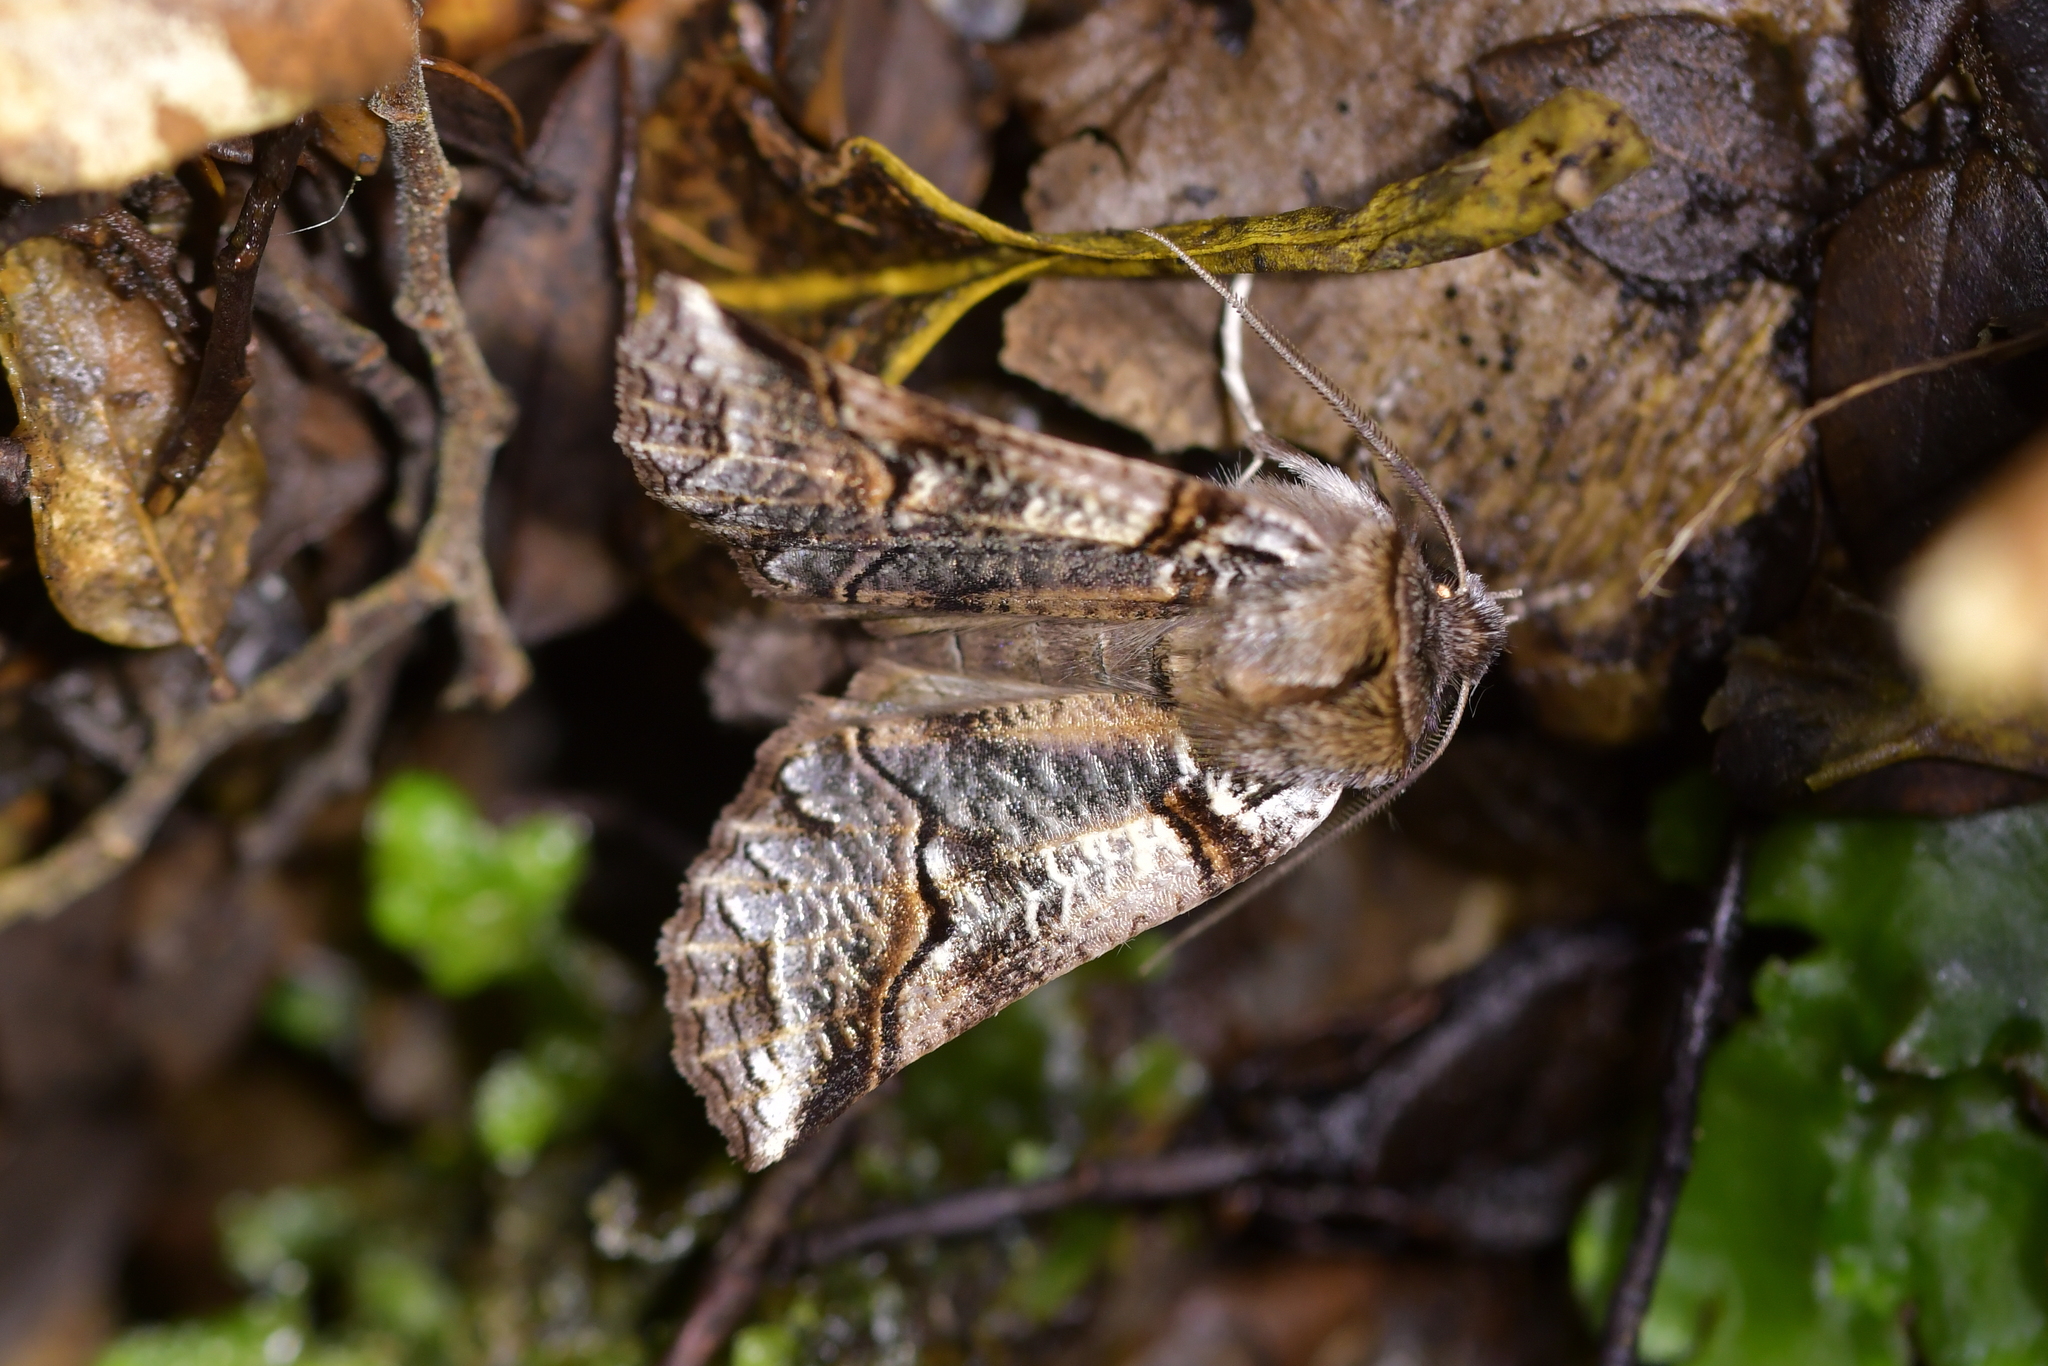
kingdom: Animalia
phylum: Arthropoda
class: Insecta
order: Lepidoptera
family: Geometridae
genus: Declana
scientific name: Declana
